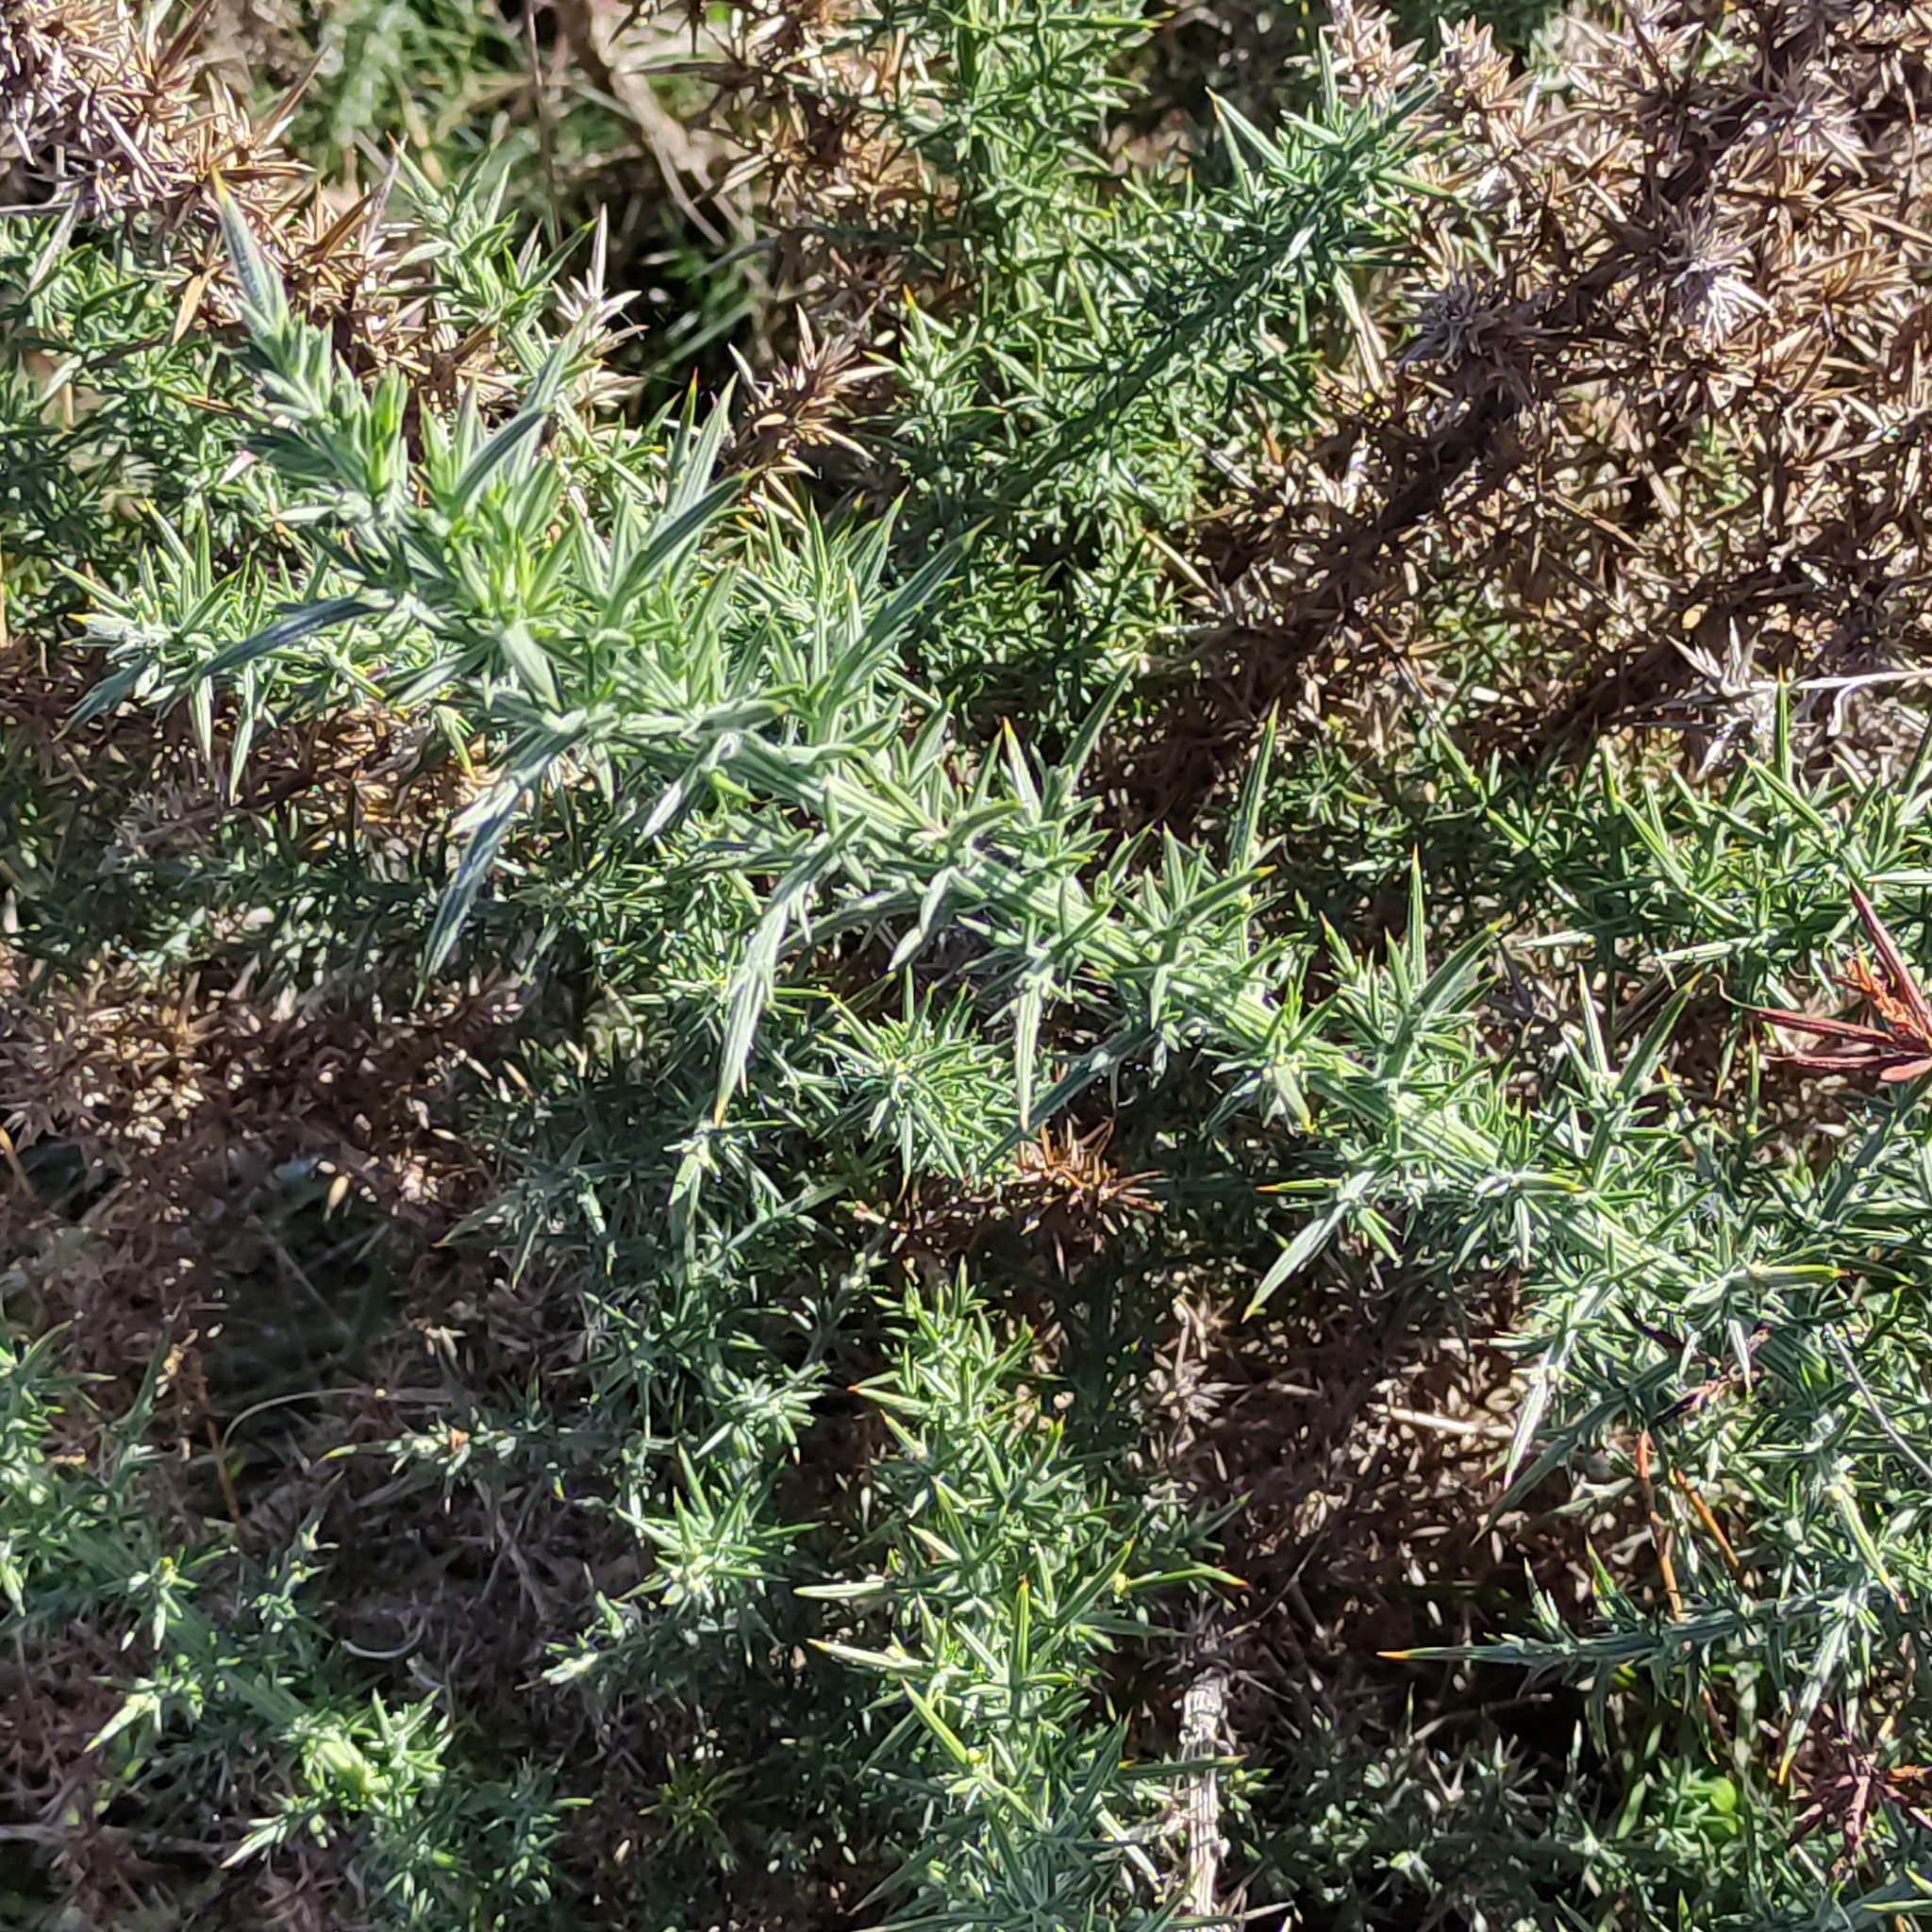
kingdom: Plantae
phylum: Tracheophyta
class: Magnoliopsida
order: Fabales
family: Fabaceae
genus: Ulex
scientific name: Ulex europaeus
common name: Common gorse
